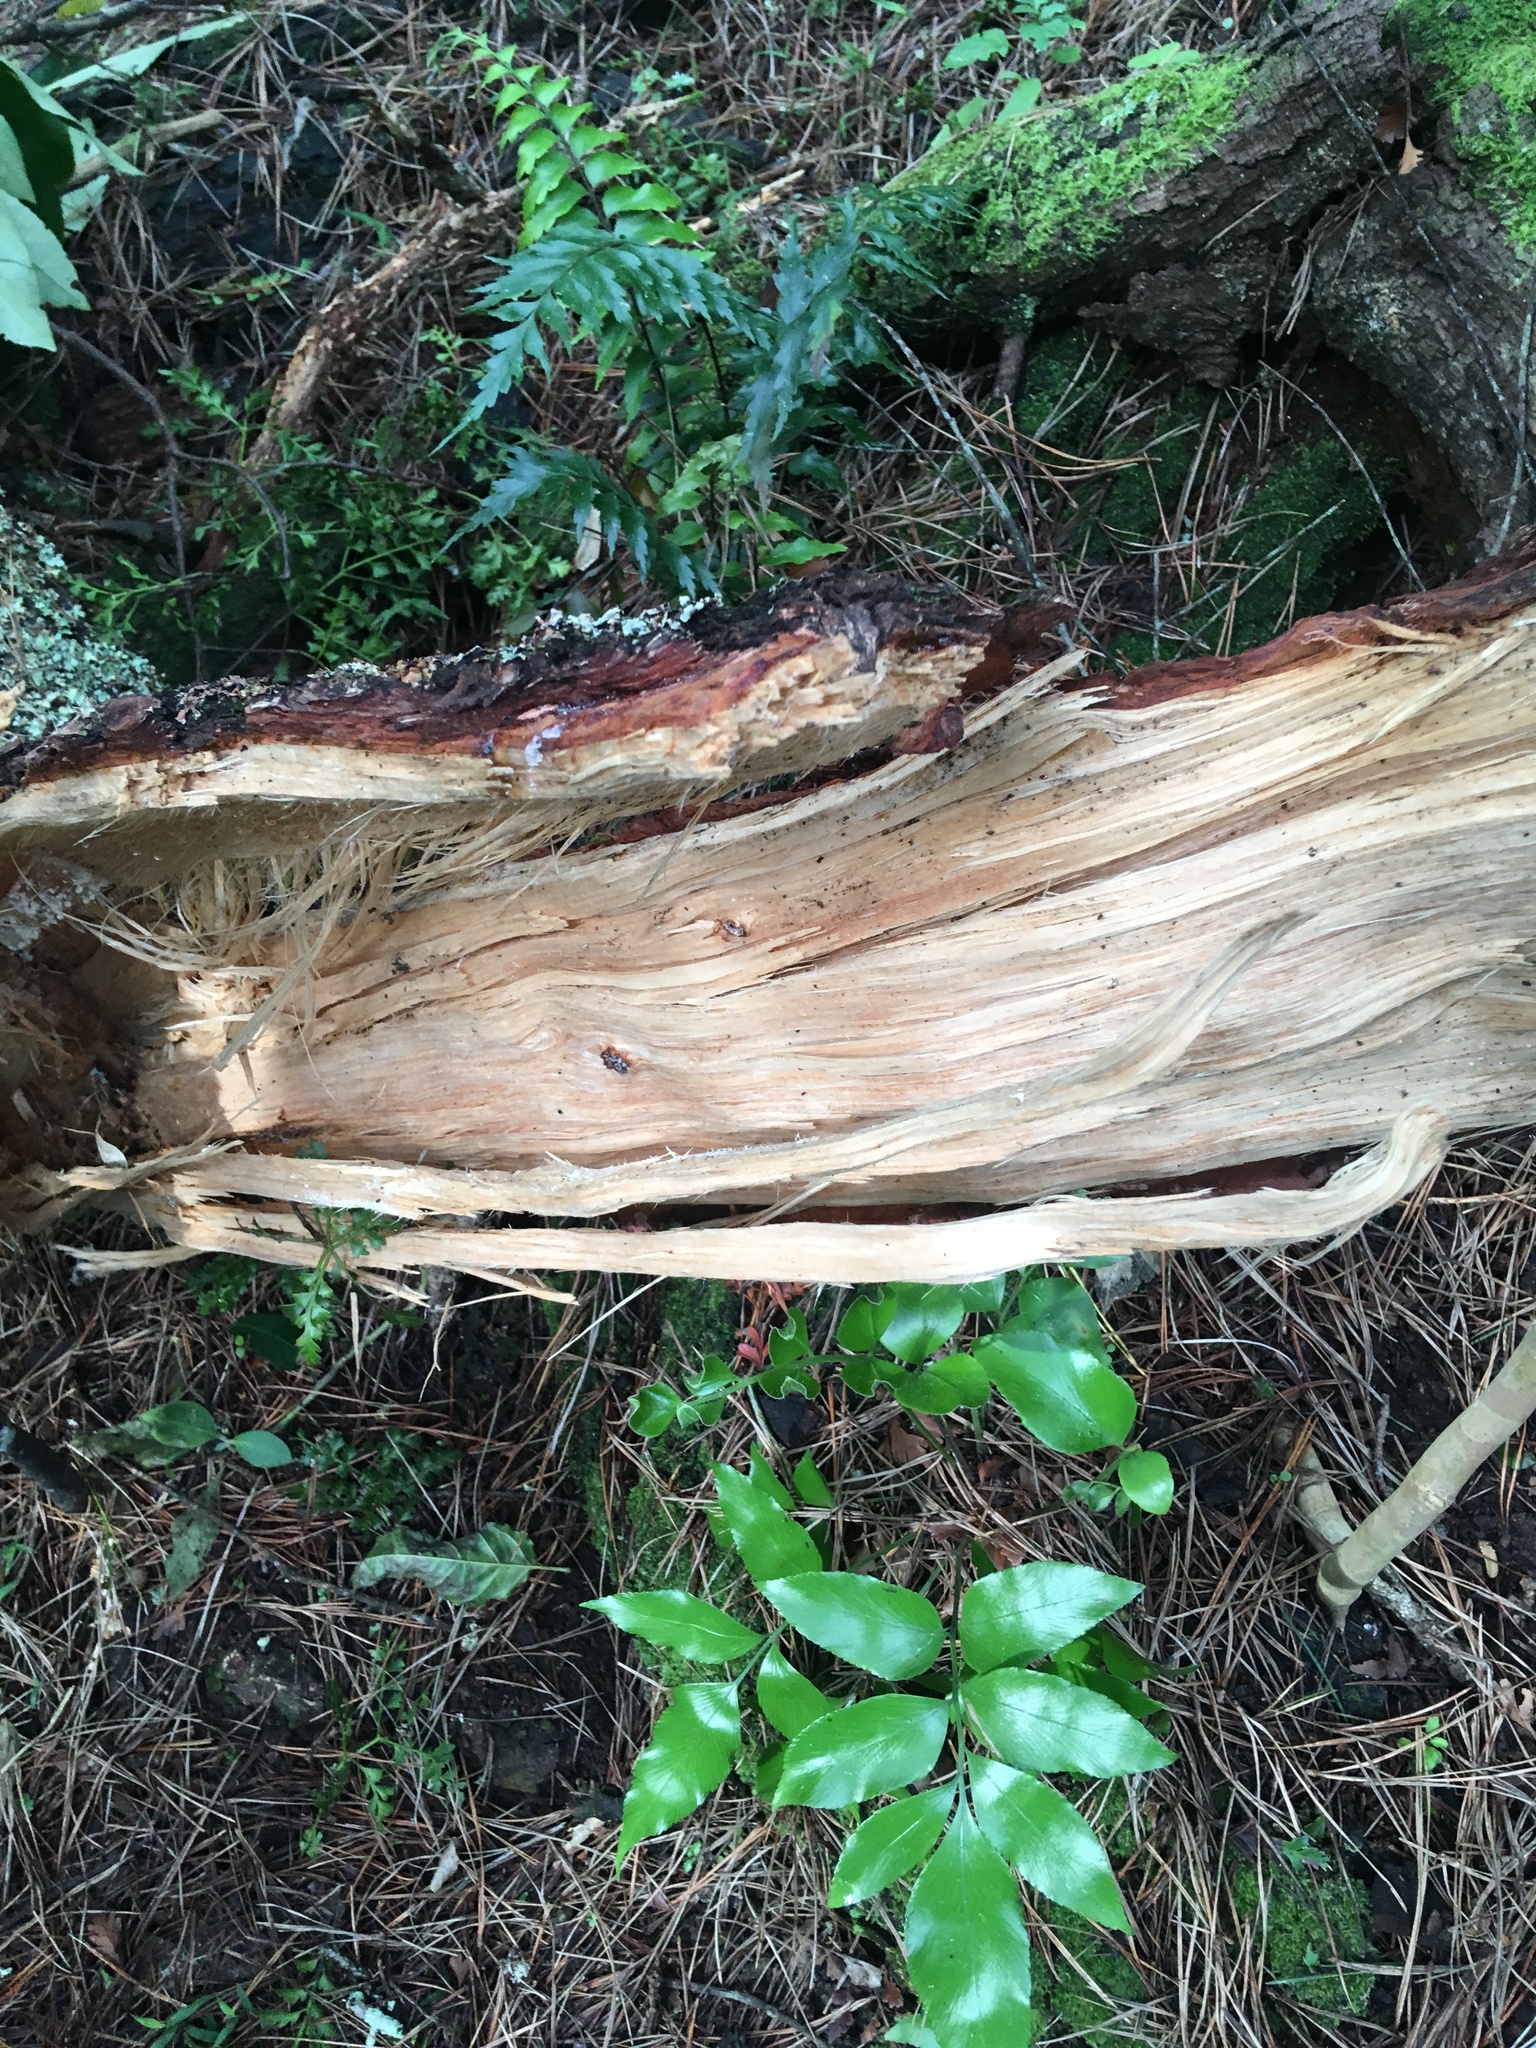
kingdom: Plantae
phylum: Tracheophyta
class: Polypodiopsida
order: Polypodiales
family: Aspleniaceae
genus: Asplenium
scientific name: Asplenium polyodon
